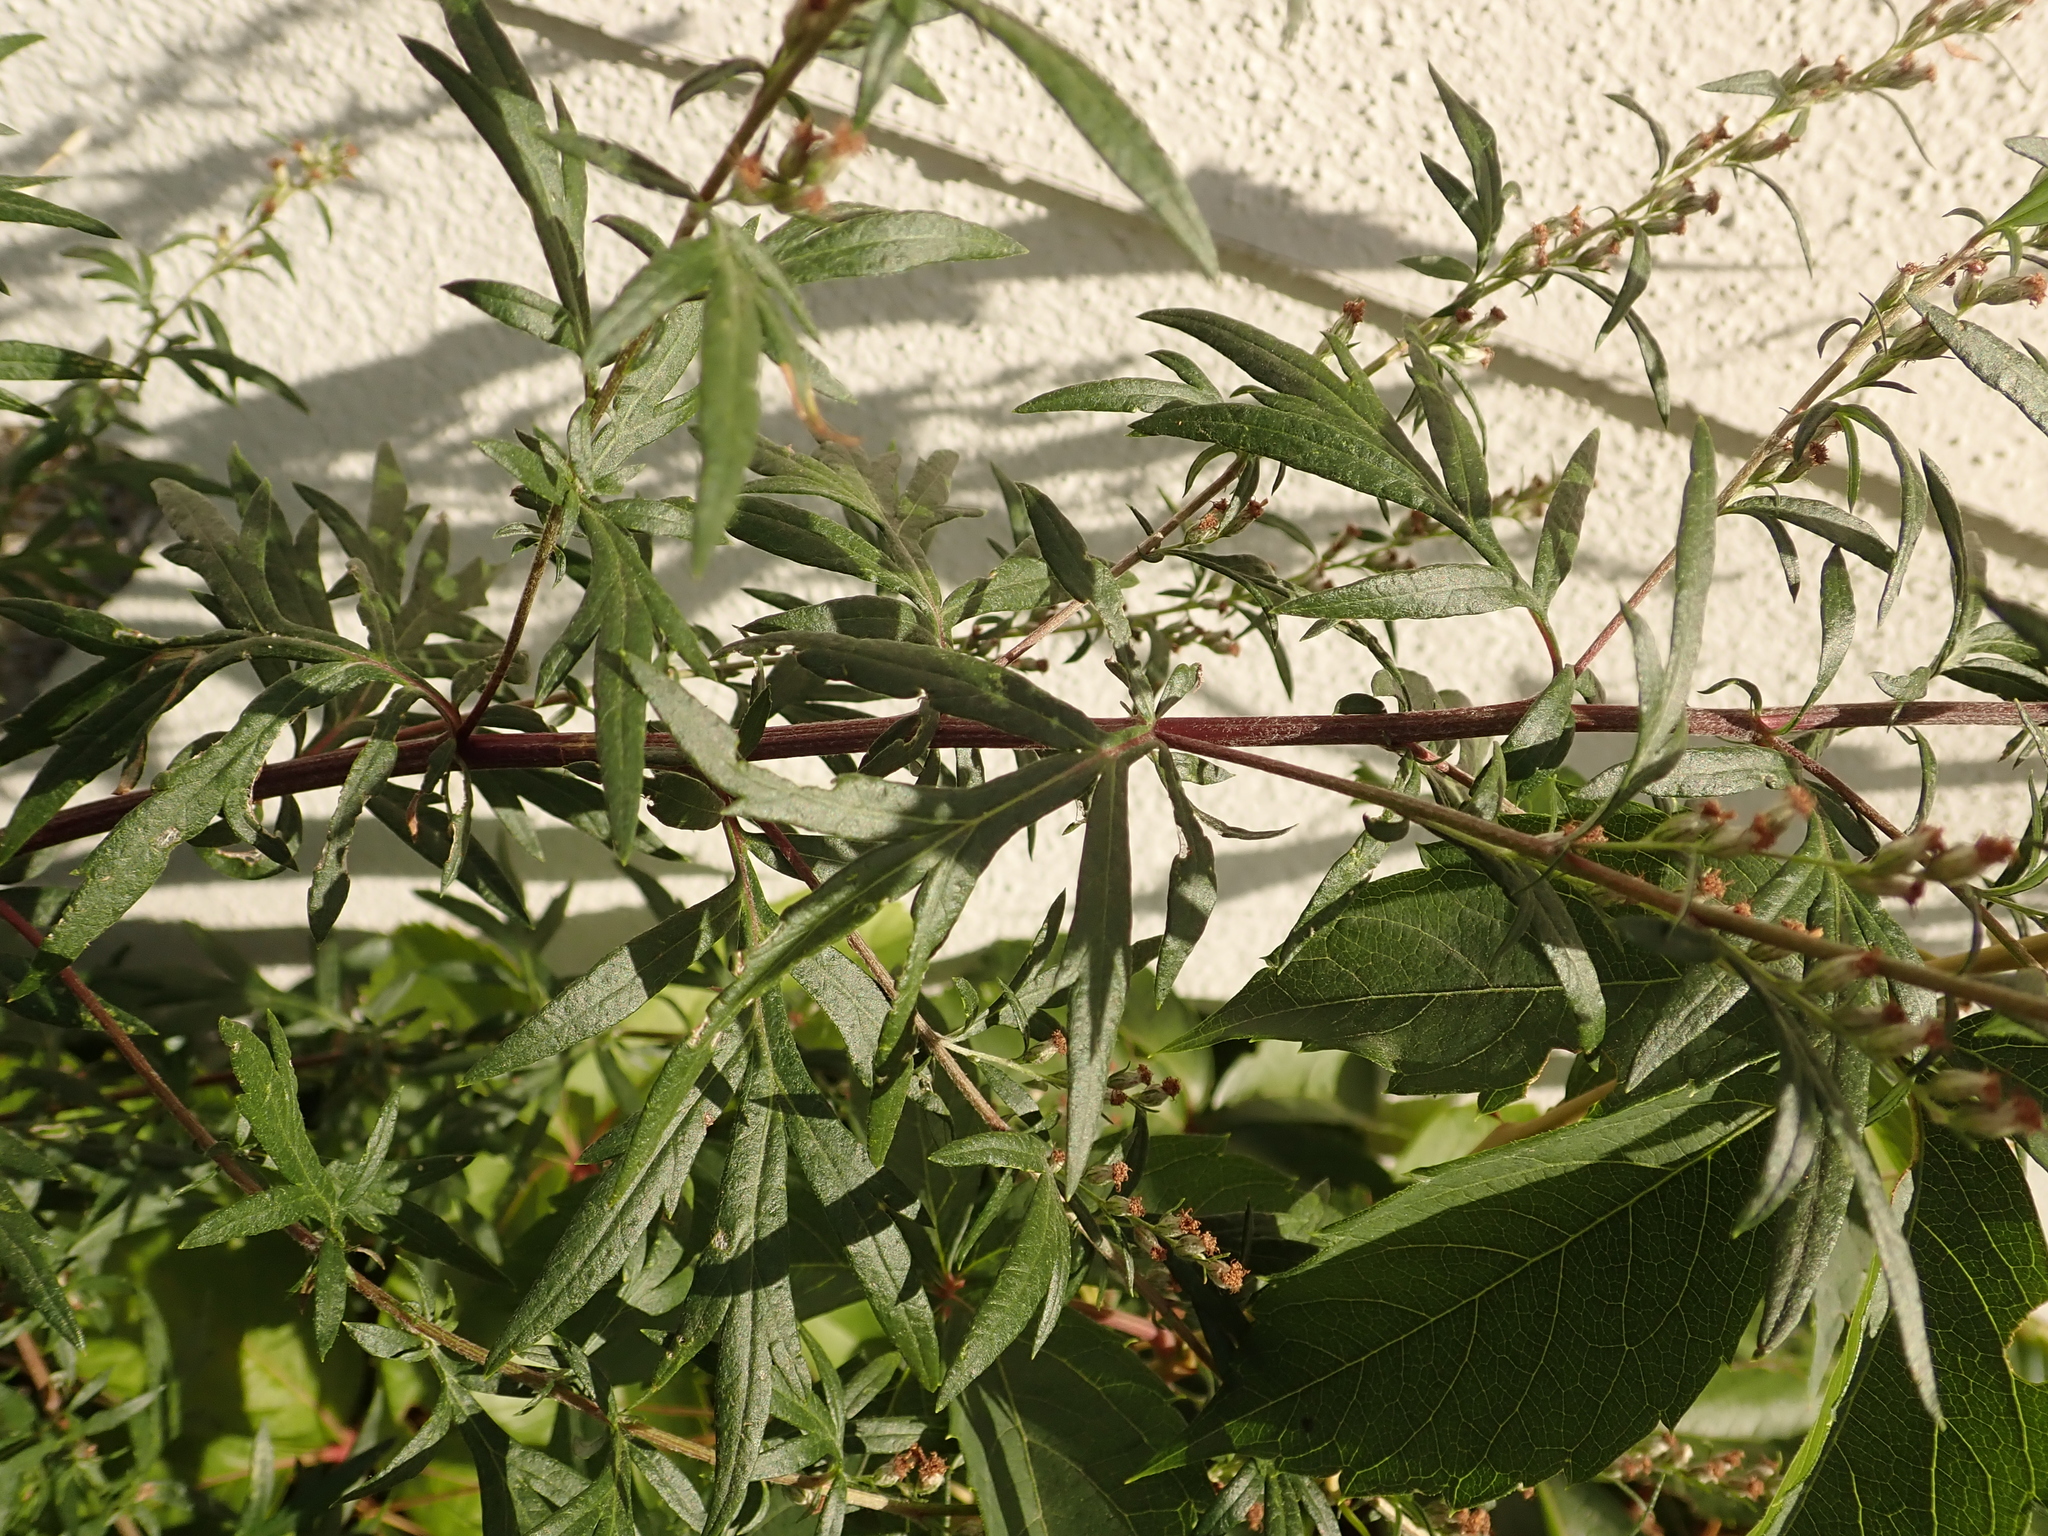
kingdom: Plantae
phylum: Tracheophyta
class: Magnoliopsida
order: Asterales
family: Asteraceae
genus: Artemisia
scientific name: Artemisia vulgaris
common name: Mugwort
